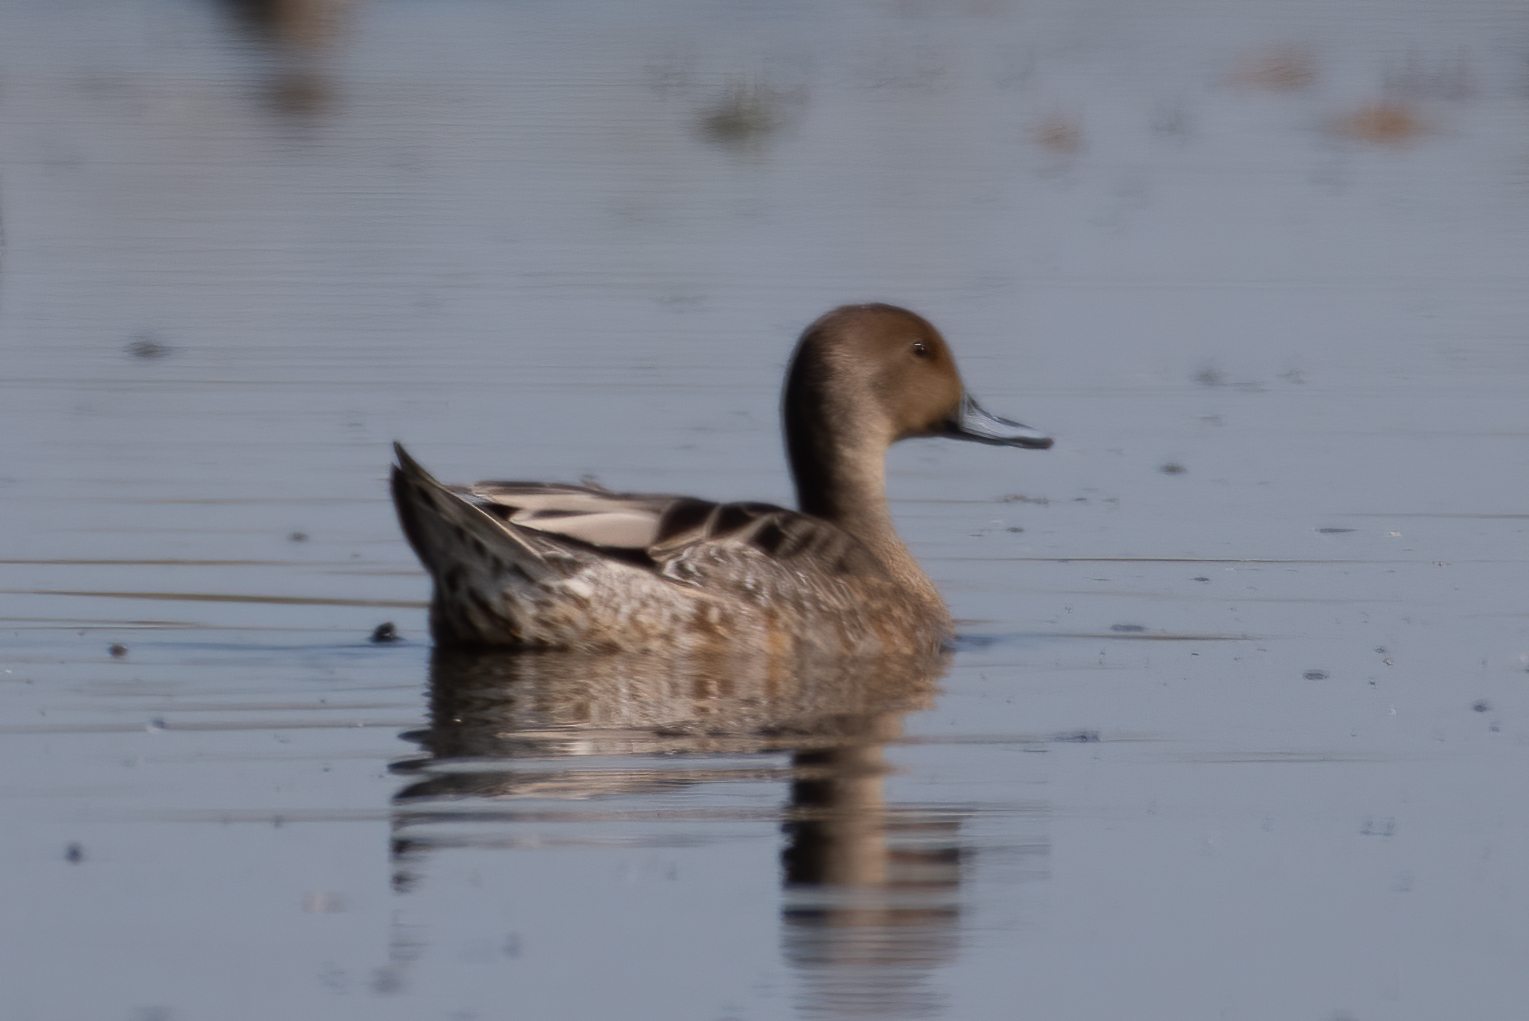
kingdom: Animalia
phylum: Chordata
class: Aves
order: Anseriformes
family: Anatidae
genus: Anas
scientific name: Anas acuta
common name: Northern pintail
